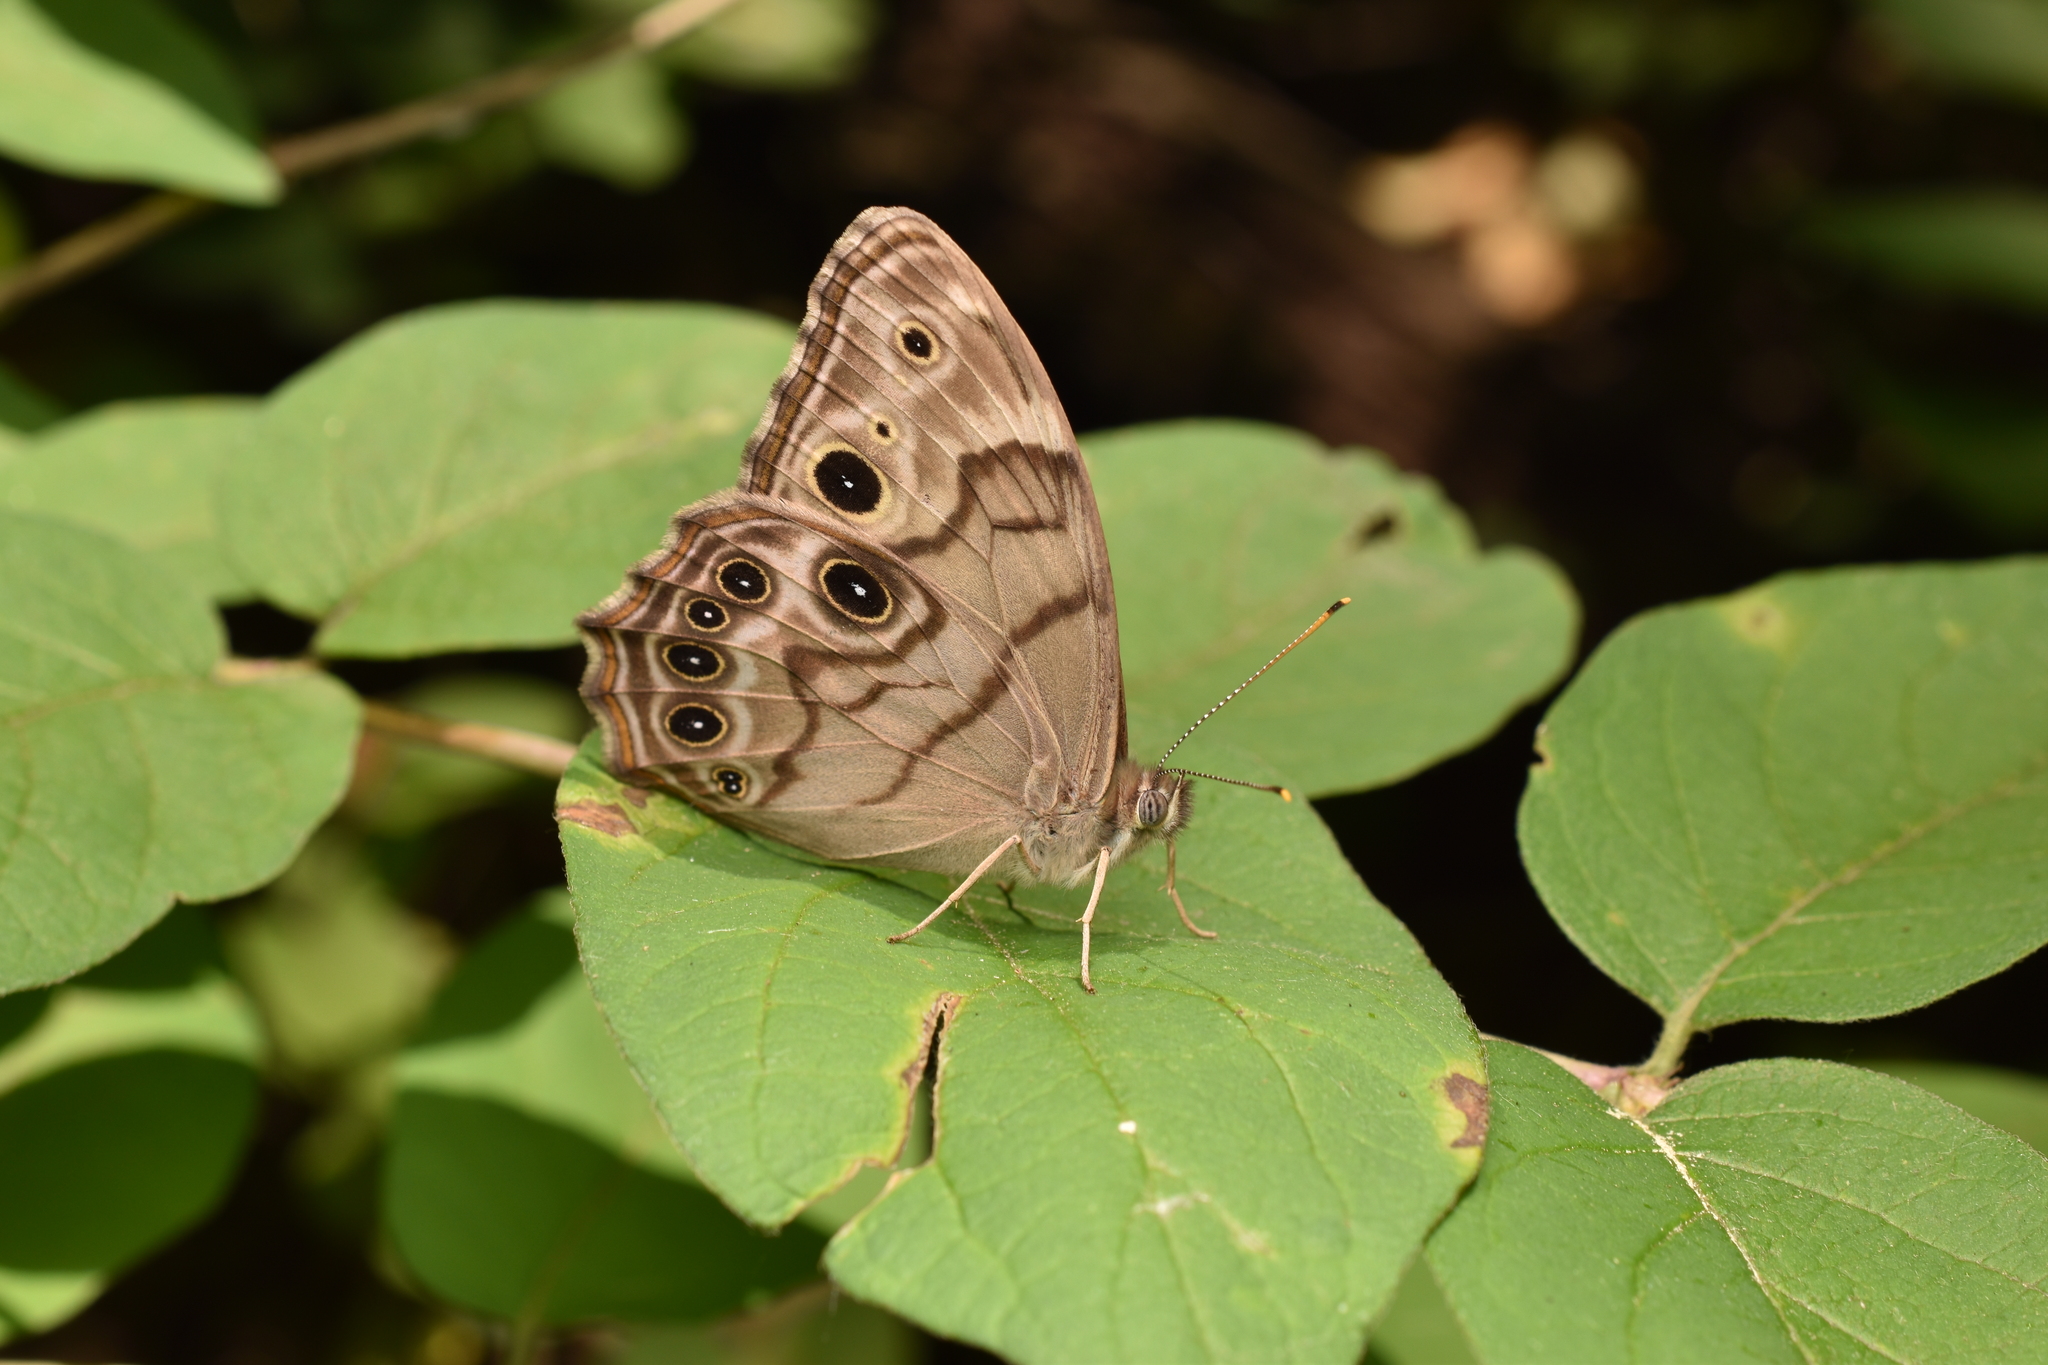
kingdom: Animalia
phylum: Arthropoda
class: Insecta
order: Lepidoptera
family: Nymphalidae
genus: Lethe
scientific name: Lethe anthedon
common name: Northern pearly-eye
